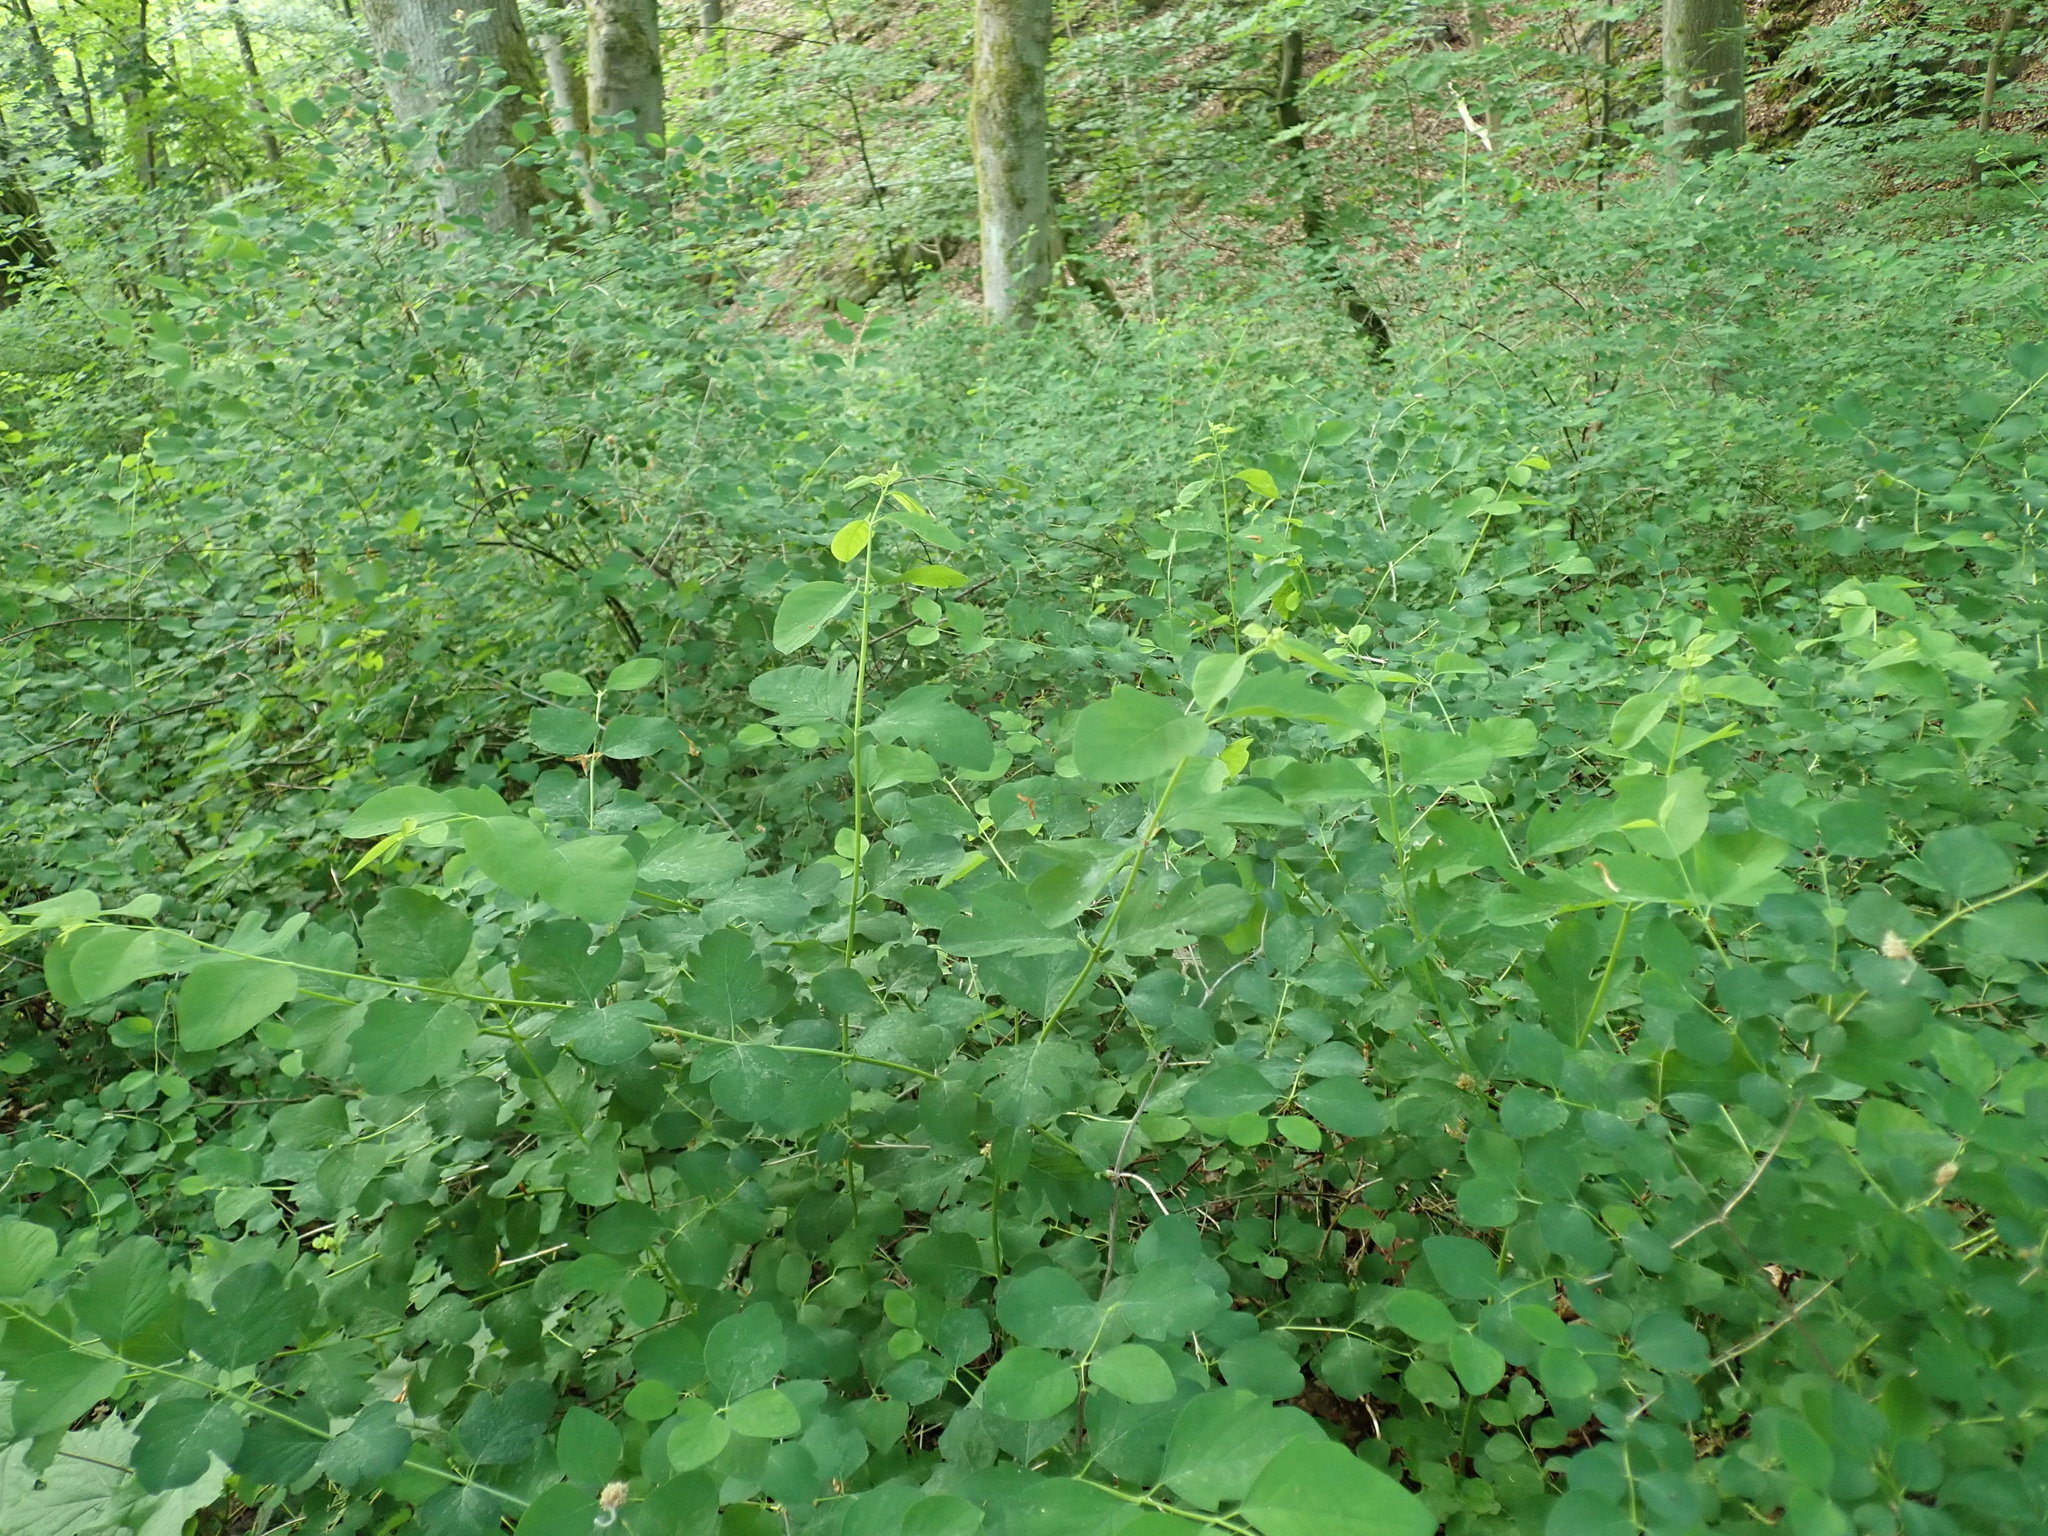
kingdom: Plantae
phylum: Tracheophyta
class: Magnoliopsida
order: Dipsacales
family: Caprifoliaceae
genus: Symphoricarpos
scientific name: Symphoricarpos albus
